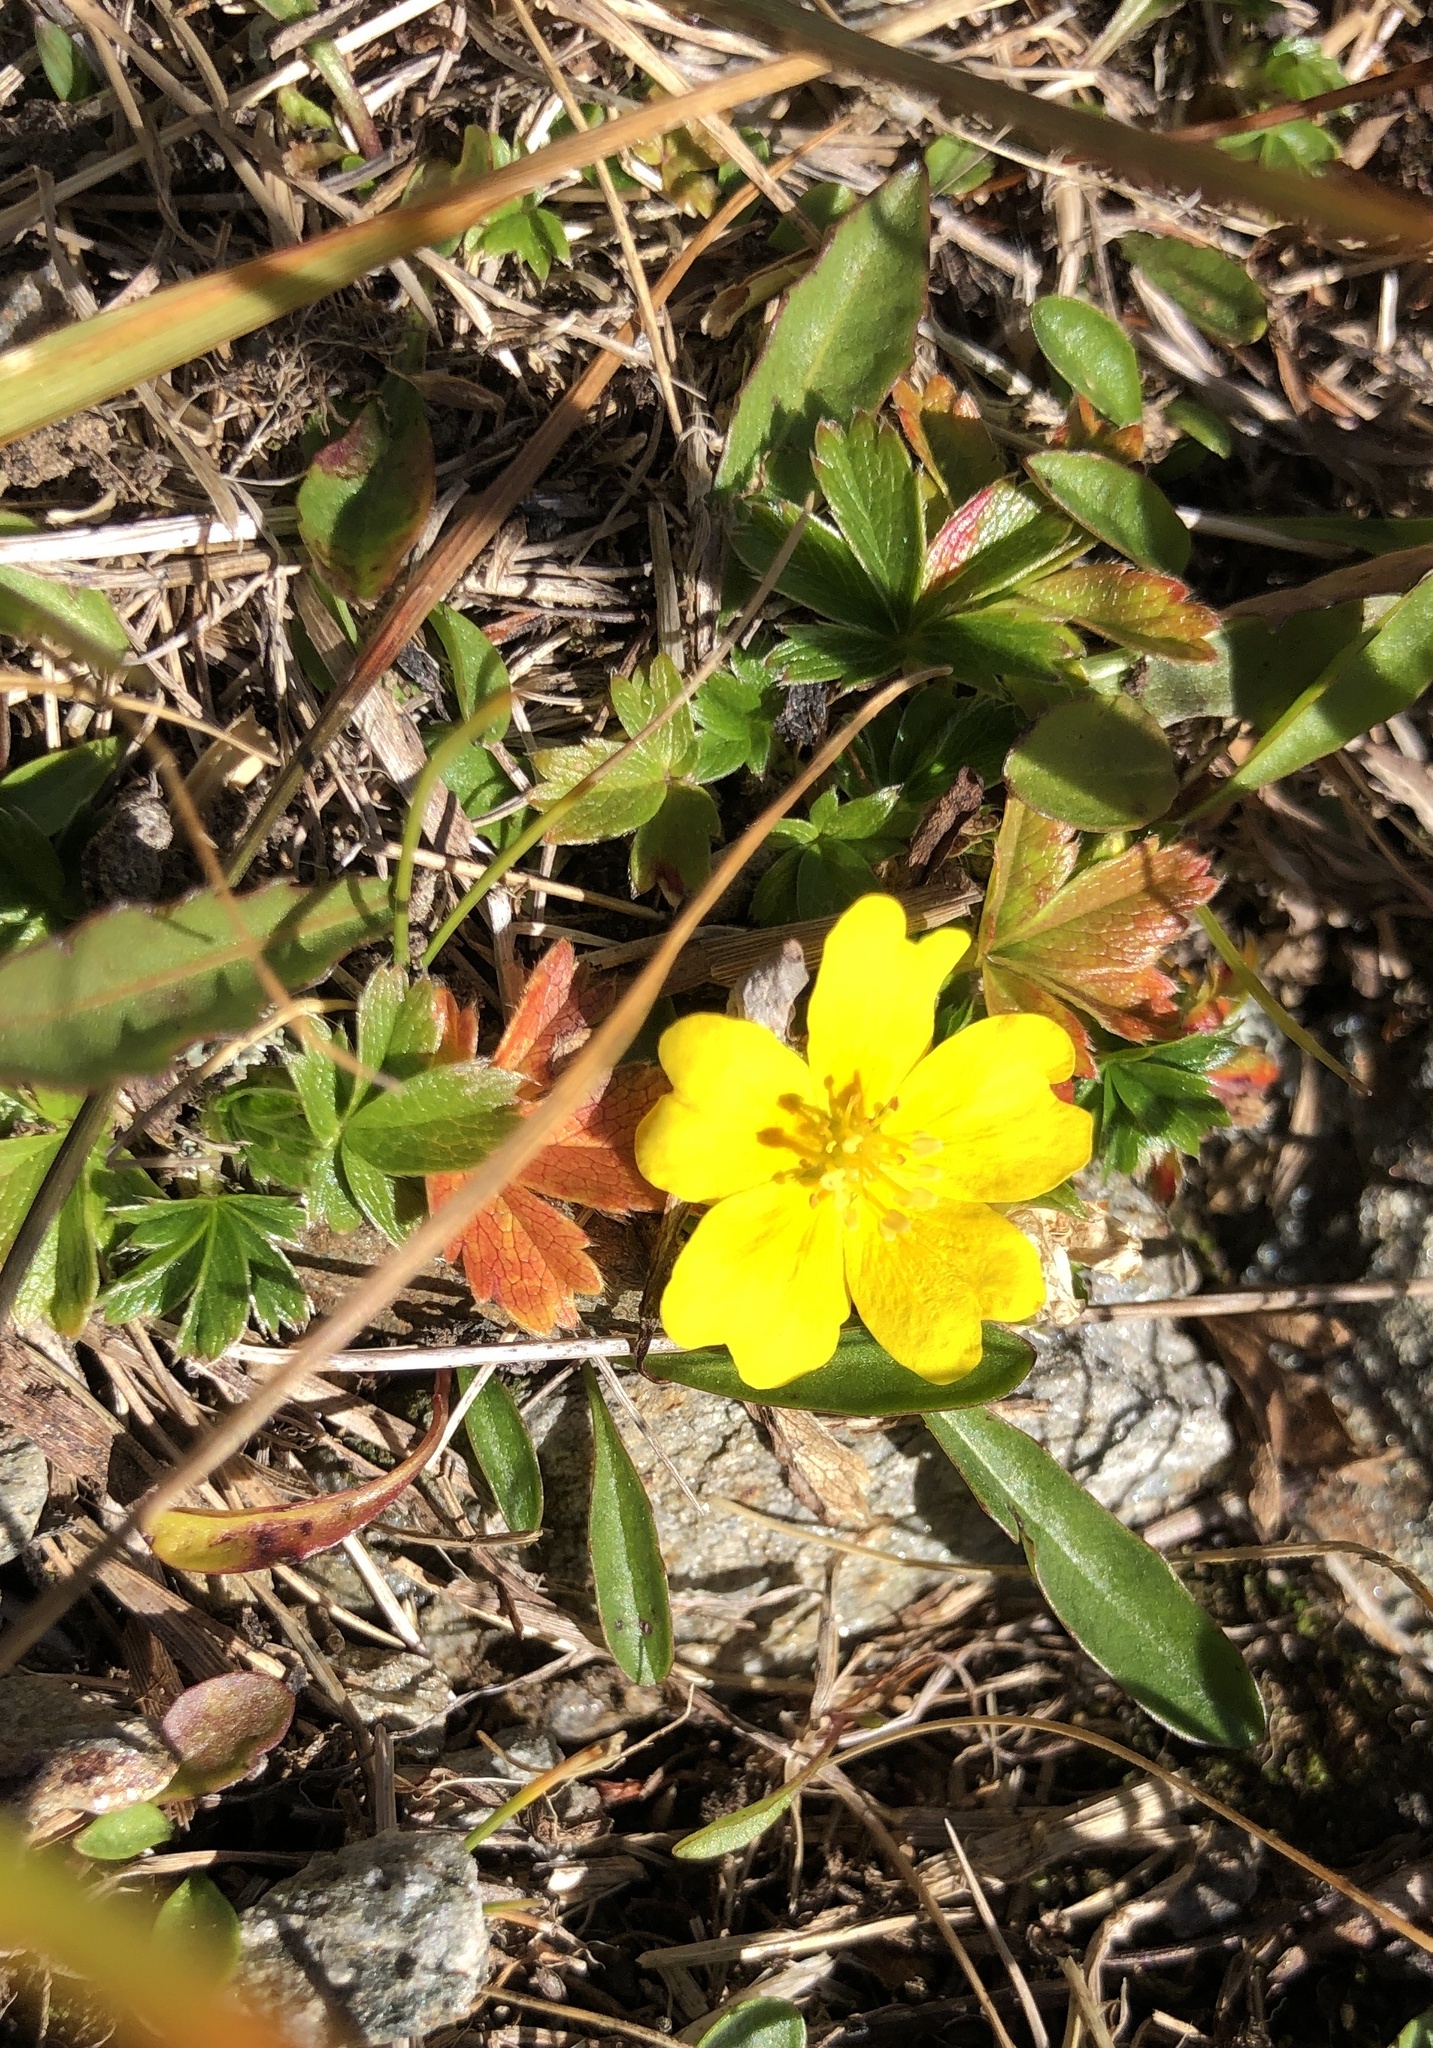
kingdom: Plantae
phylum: Tracheophyta
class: Magnoliopsida
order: Rosales
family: Rosaceae
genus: Potentilla
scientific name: Potentilla aurea
